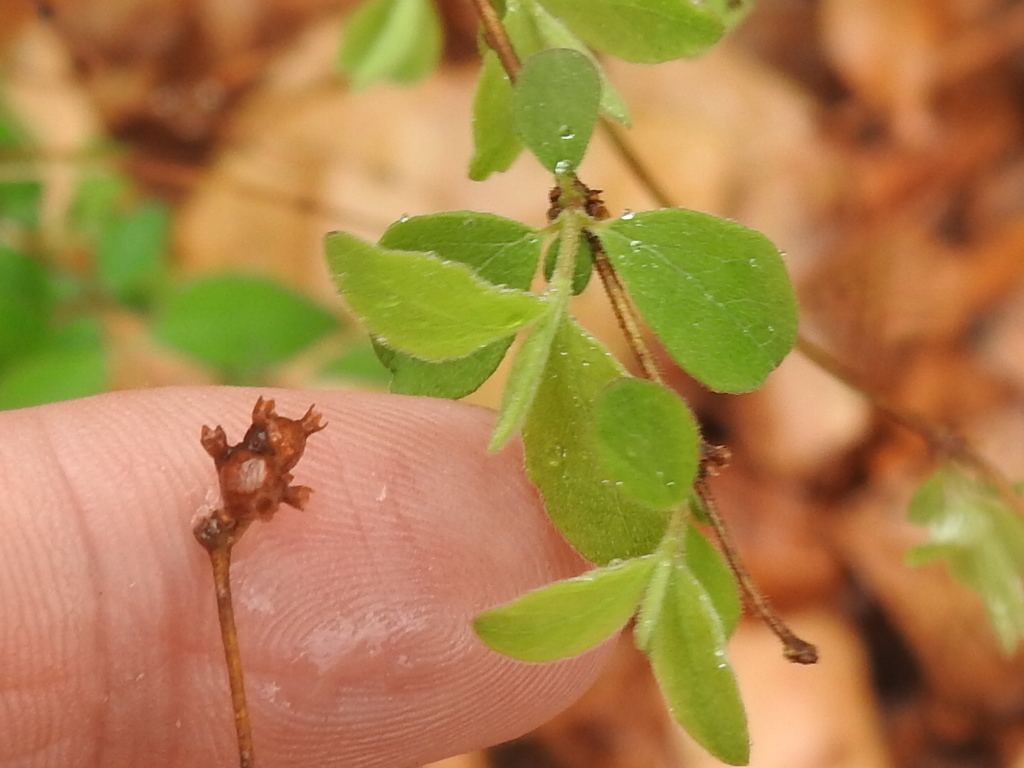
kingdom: Plantae
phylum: Tracheophyta
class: Magnoliopsida
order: Dipsacales
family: Caprifoliaceae
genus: Symphoricarpos
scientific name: Symphoricarpos orbiculatus
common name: Coralberry
